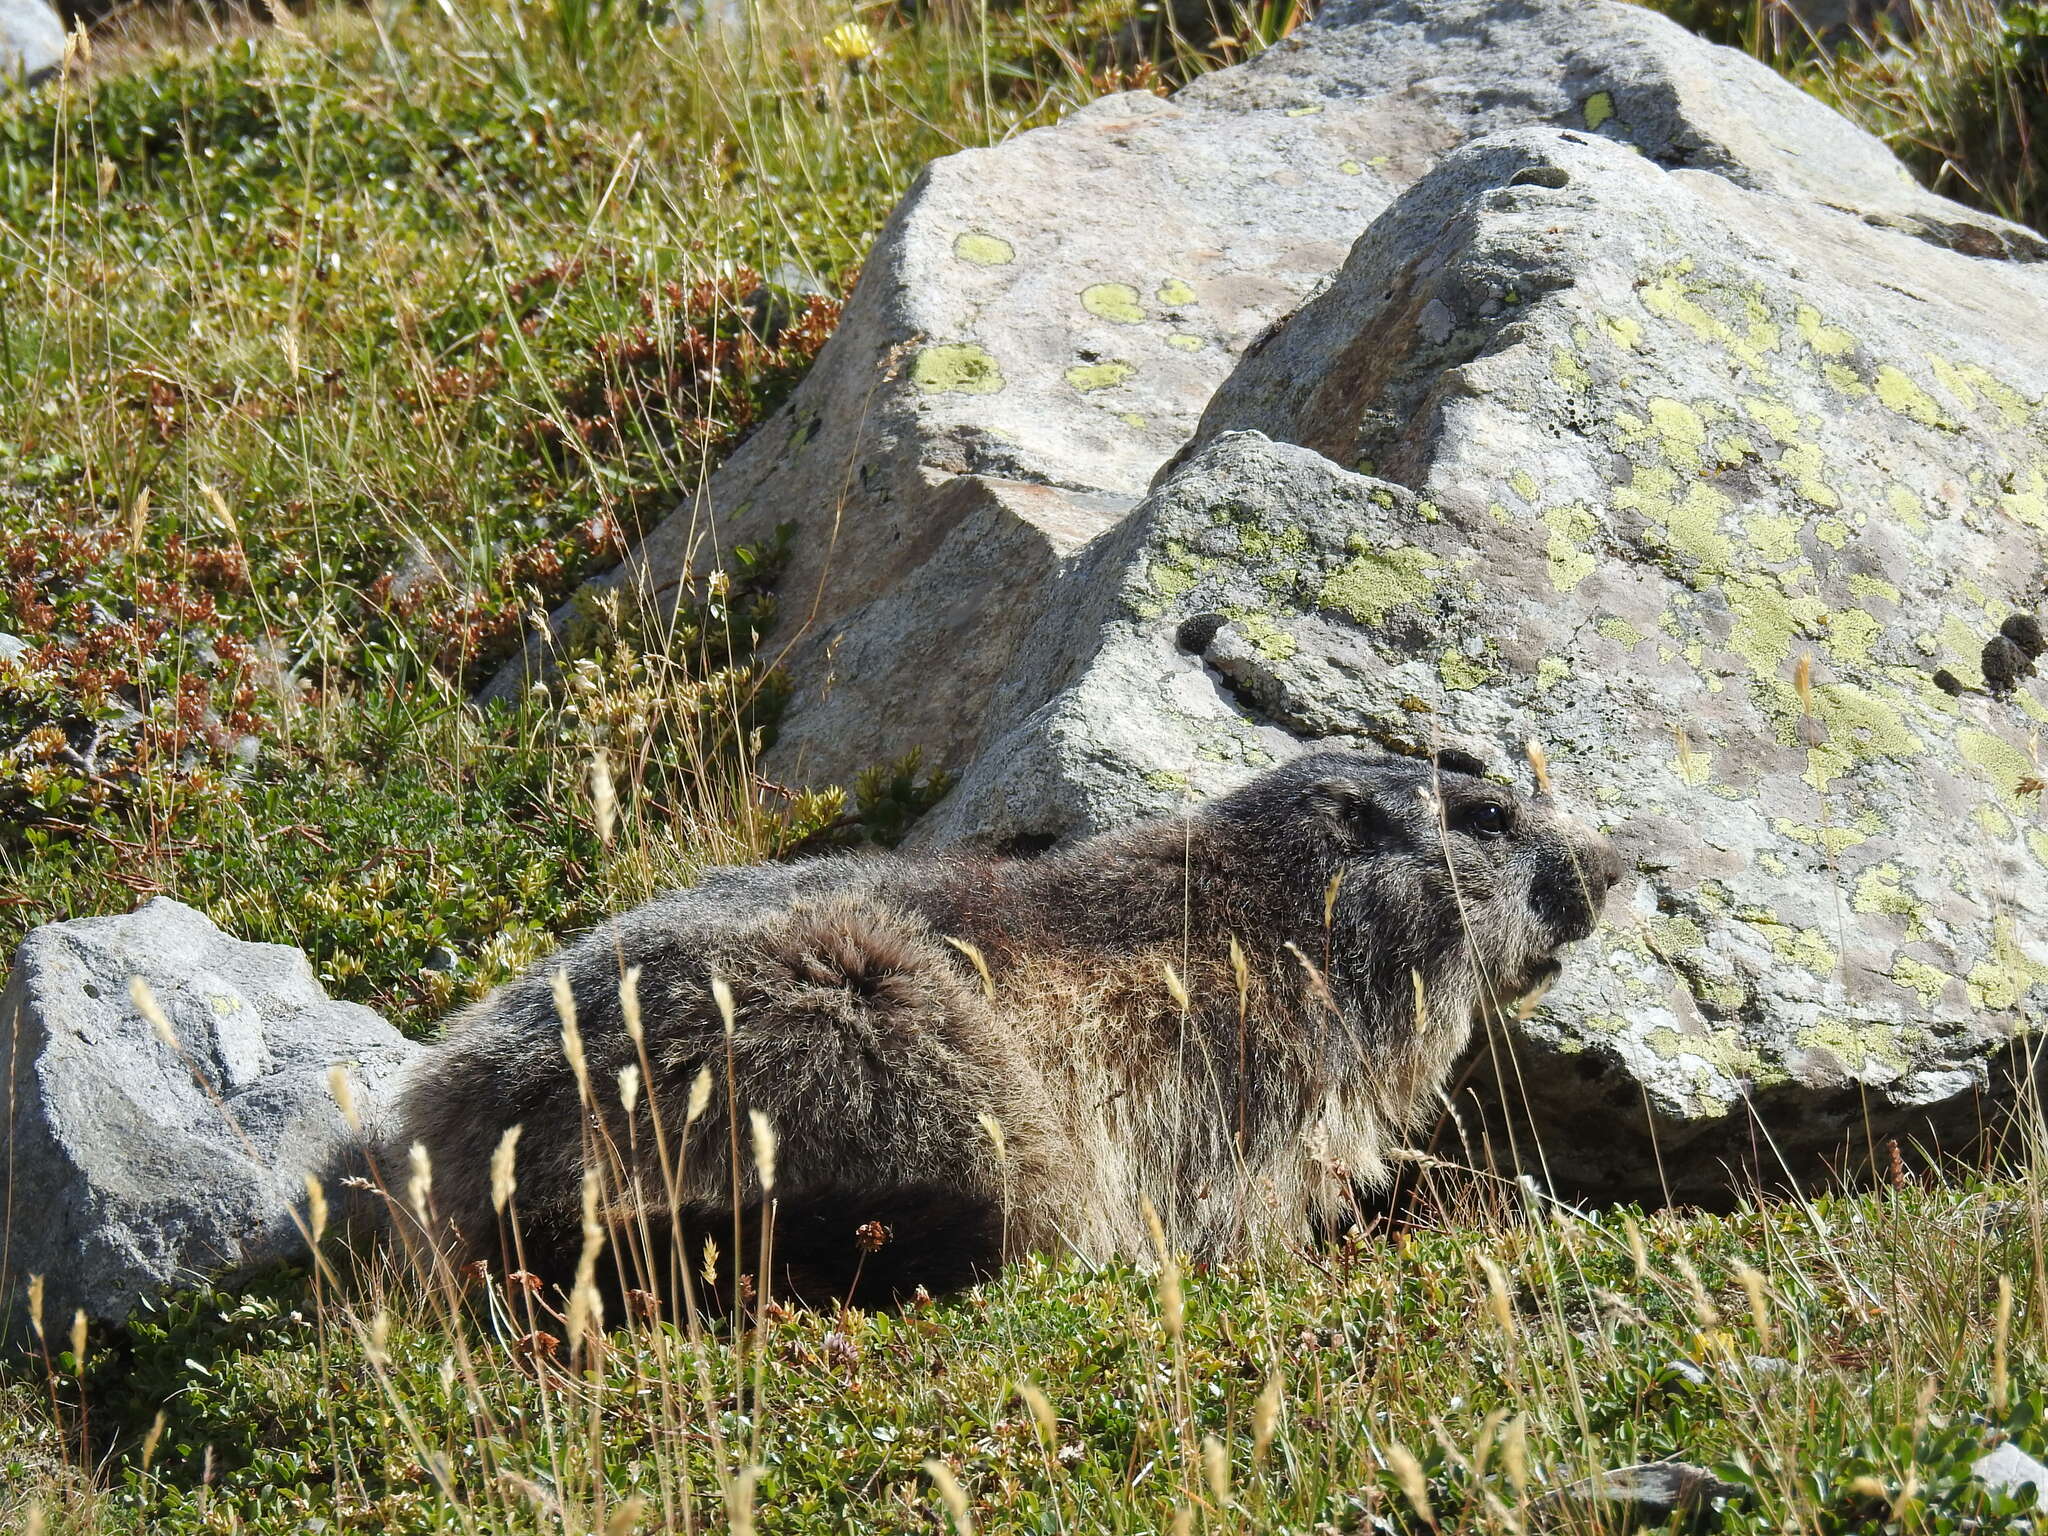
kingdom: Animalia
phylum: Chordata
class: Mammalia
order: Rodentia
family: Sciuridae
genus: Marmota
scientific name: Marmota marmota
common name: Alpine marmot
